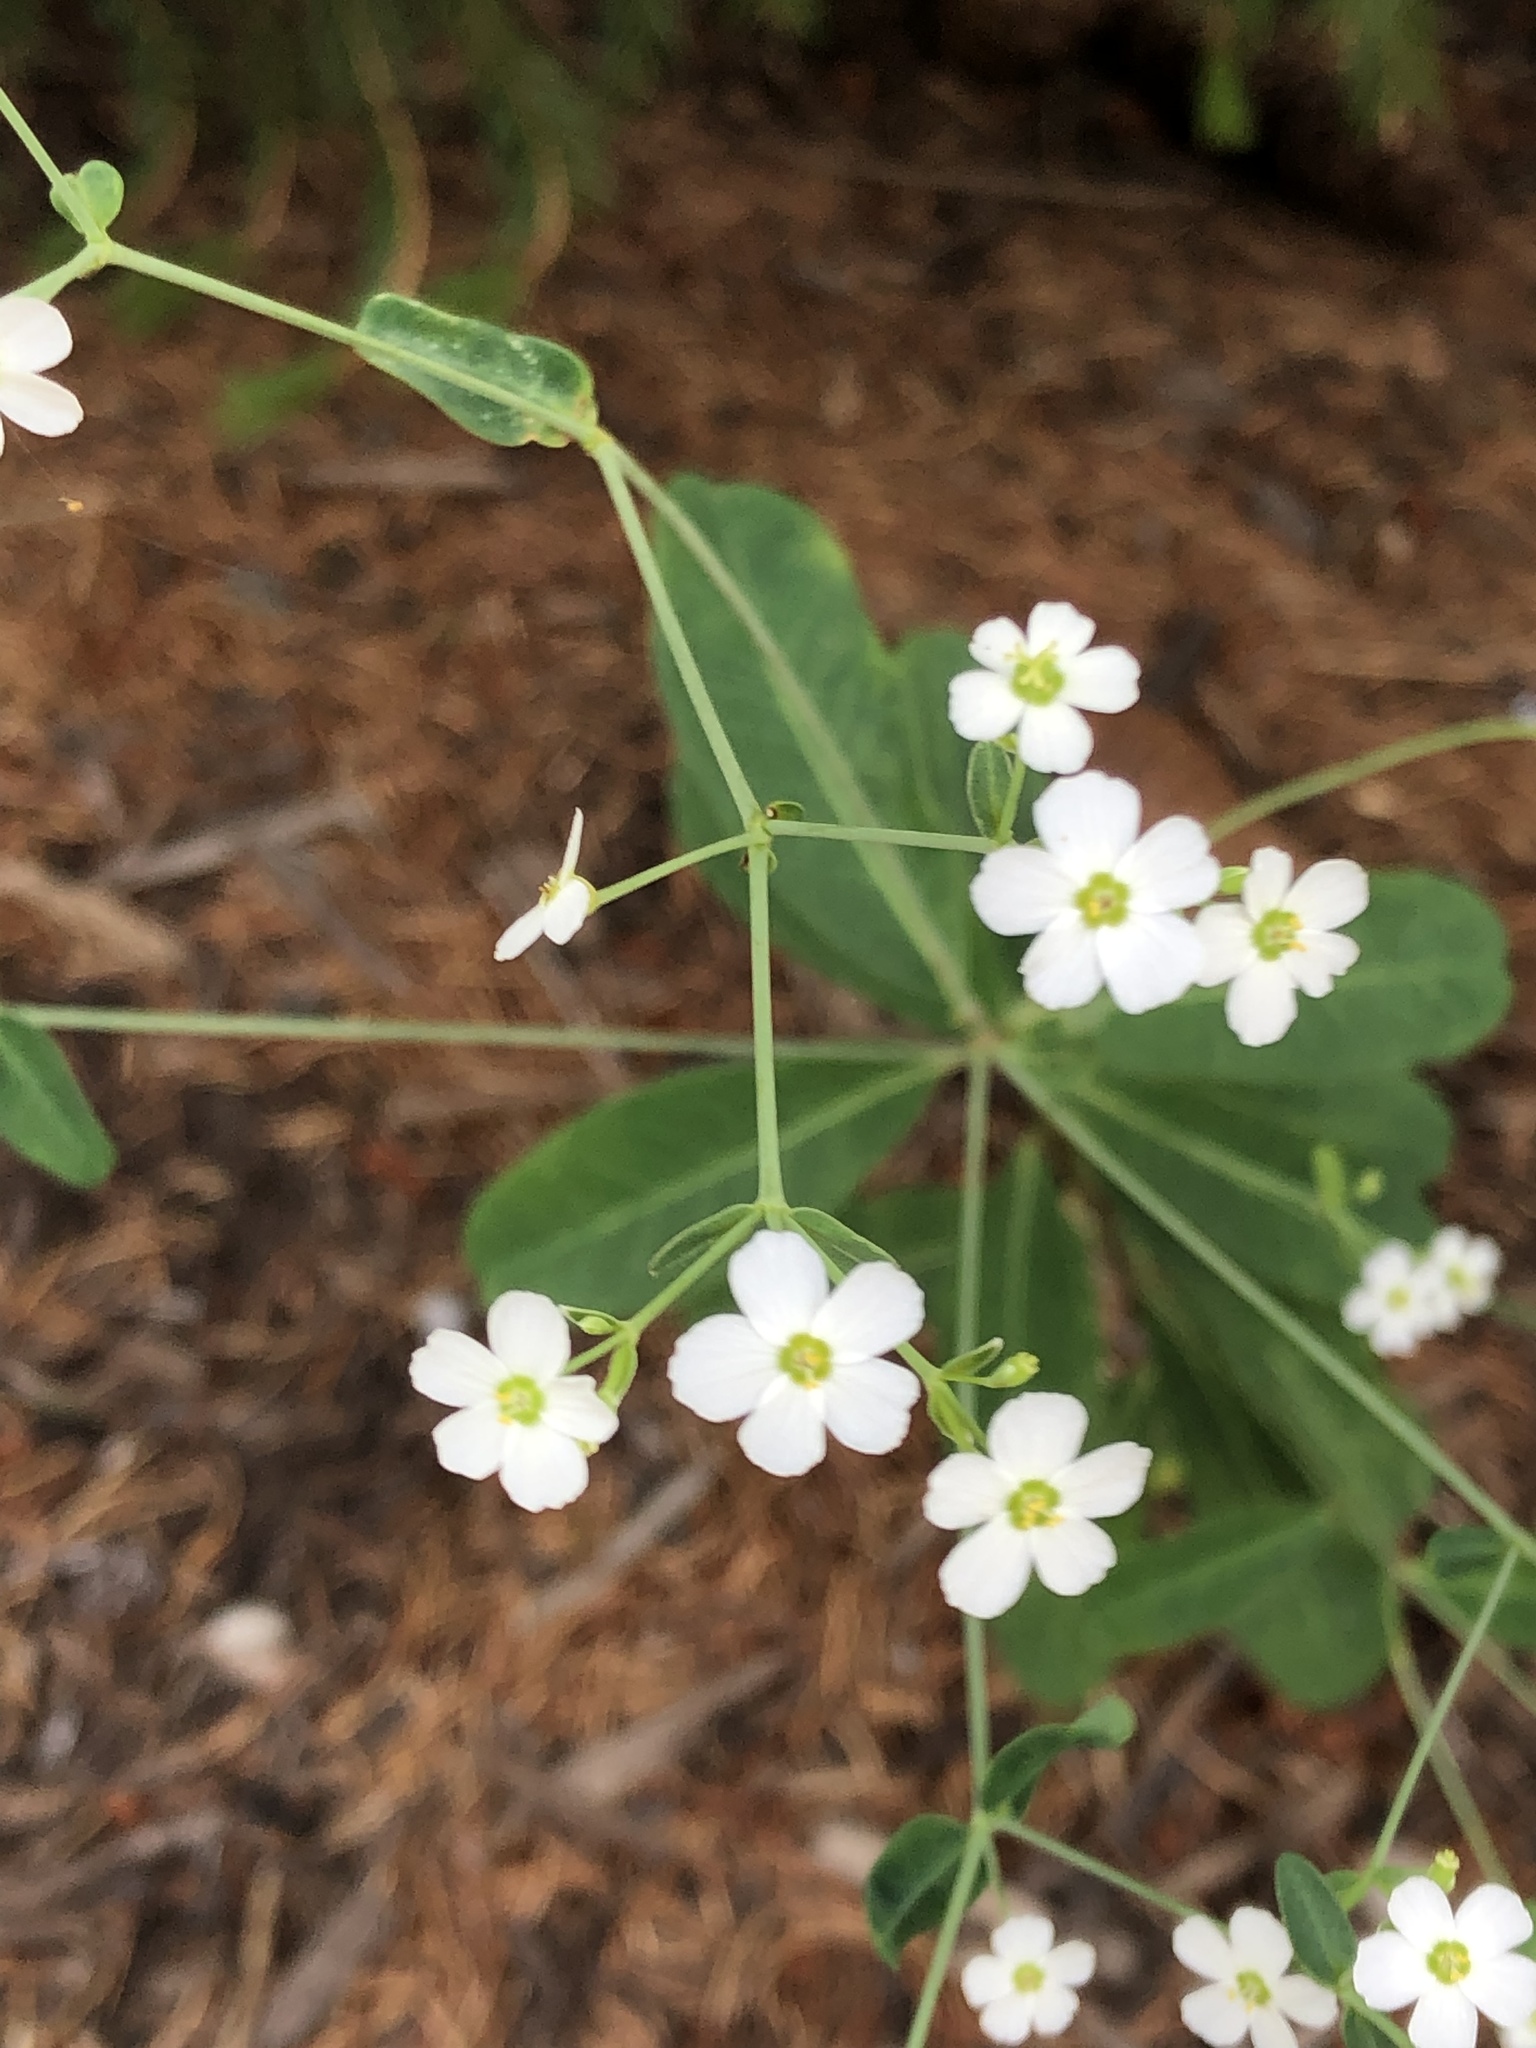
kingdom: Plantae
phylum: Tracheophyta
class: Magnoliopsida
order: Malpighiales
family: Euphorbiaceae
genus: Euphorbia
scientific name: Euphorbia corollata
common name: Flowering spurge
